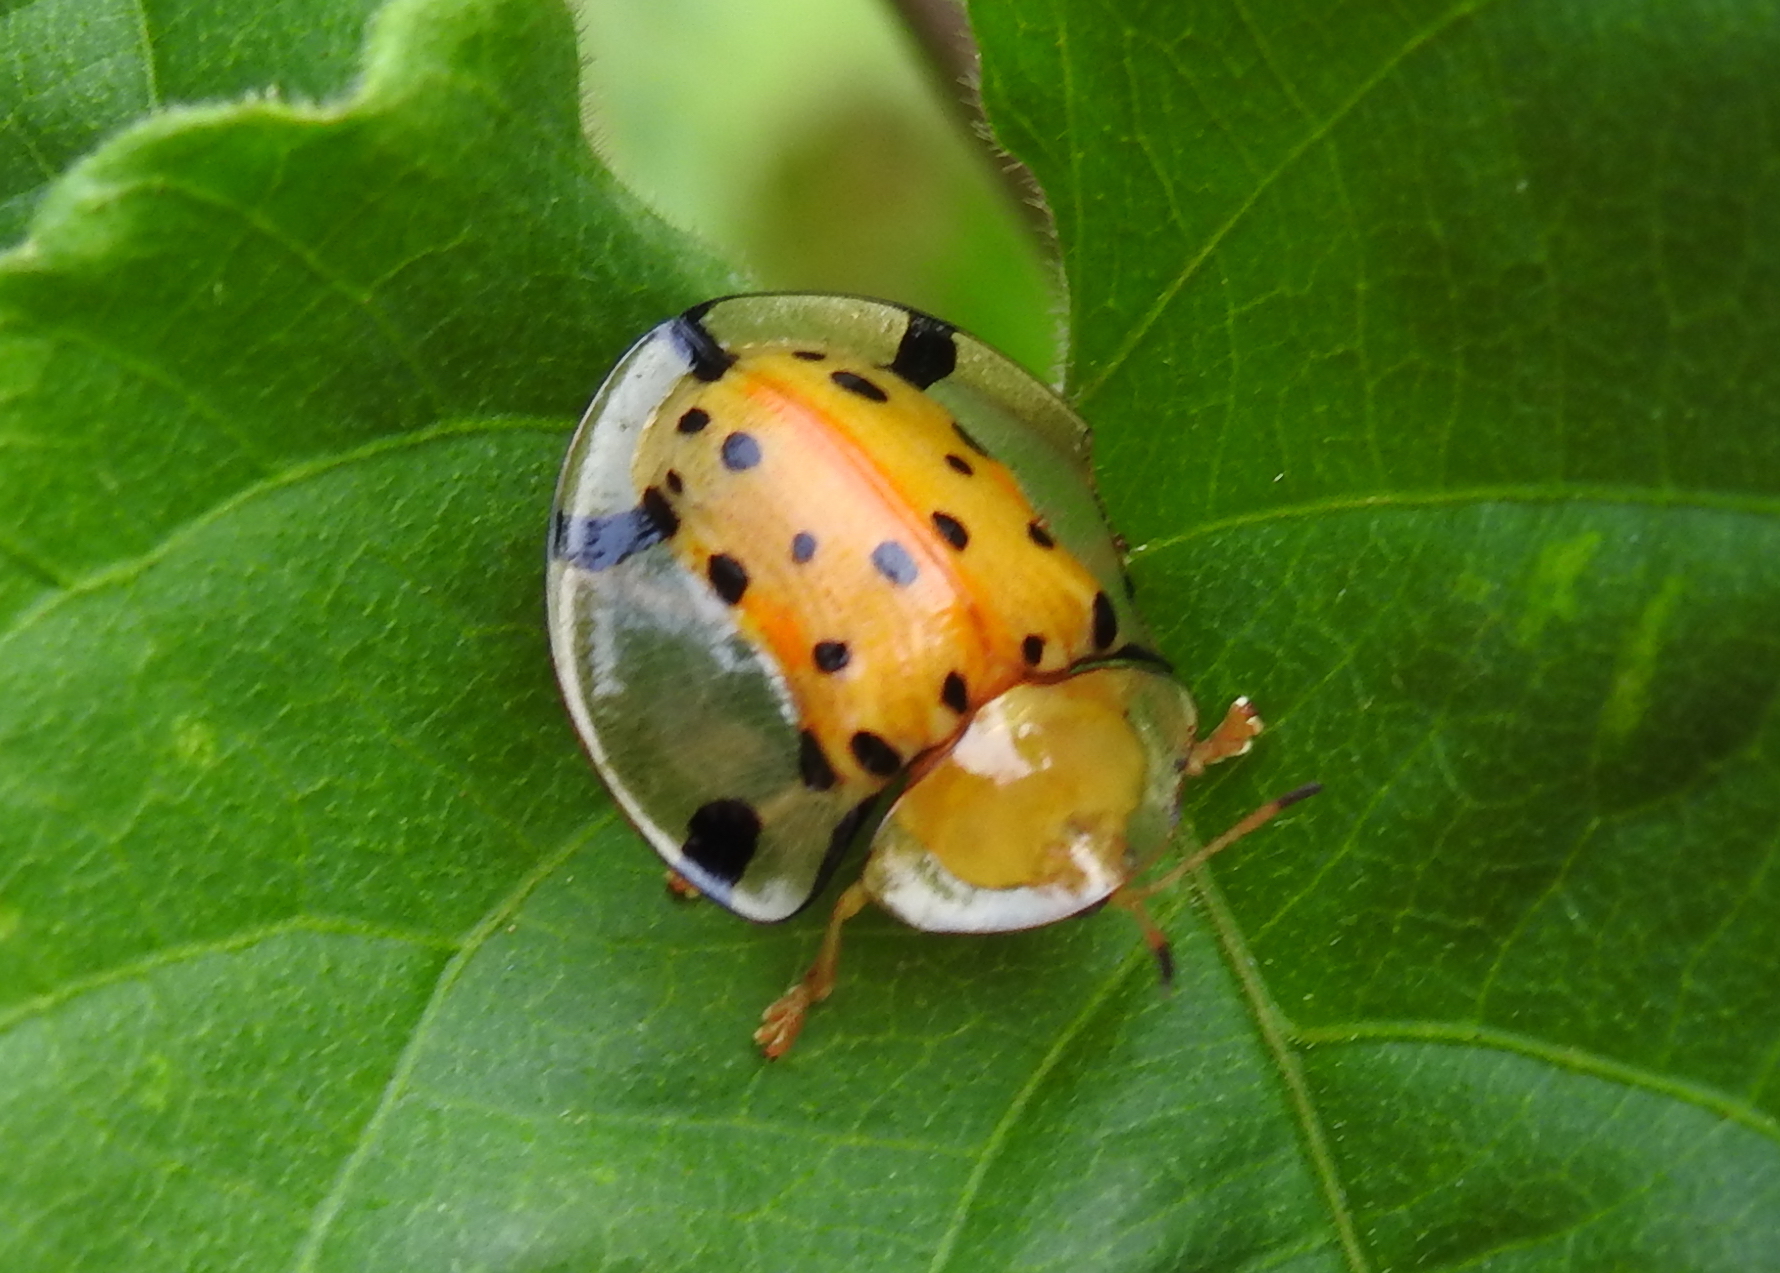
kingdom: Animalia
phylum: Arthropoda
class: Insecta
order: Coleoptera
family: Chrysomelidae
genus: Aspidimorpha
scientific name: Aspidimorpha miliaris
